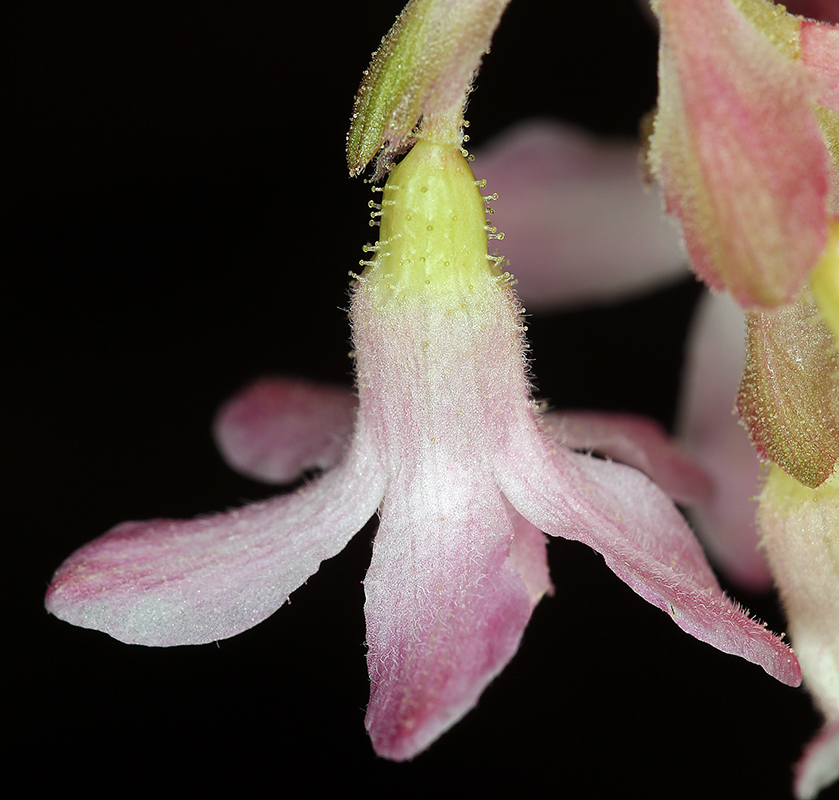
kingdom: Plantae
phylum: Tracheophyta
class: Magnoliopsida
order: Saxifragales
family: Grossulariaceae
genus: Ribes
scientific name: Ribes sanguineum
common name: Flowering currant
